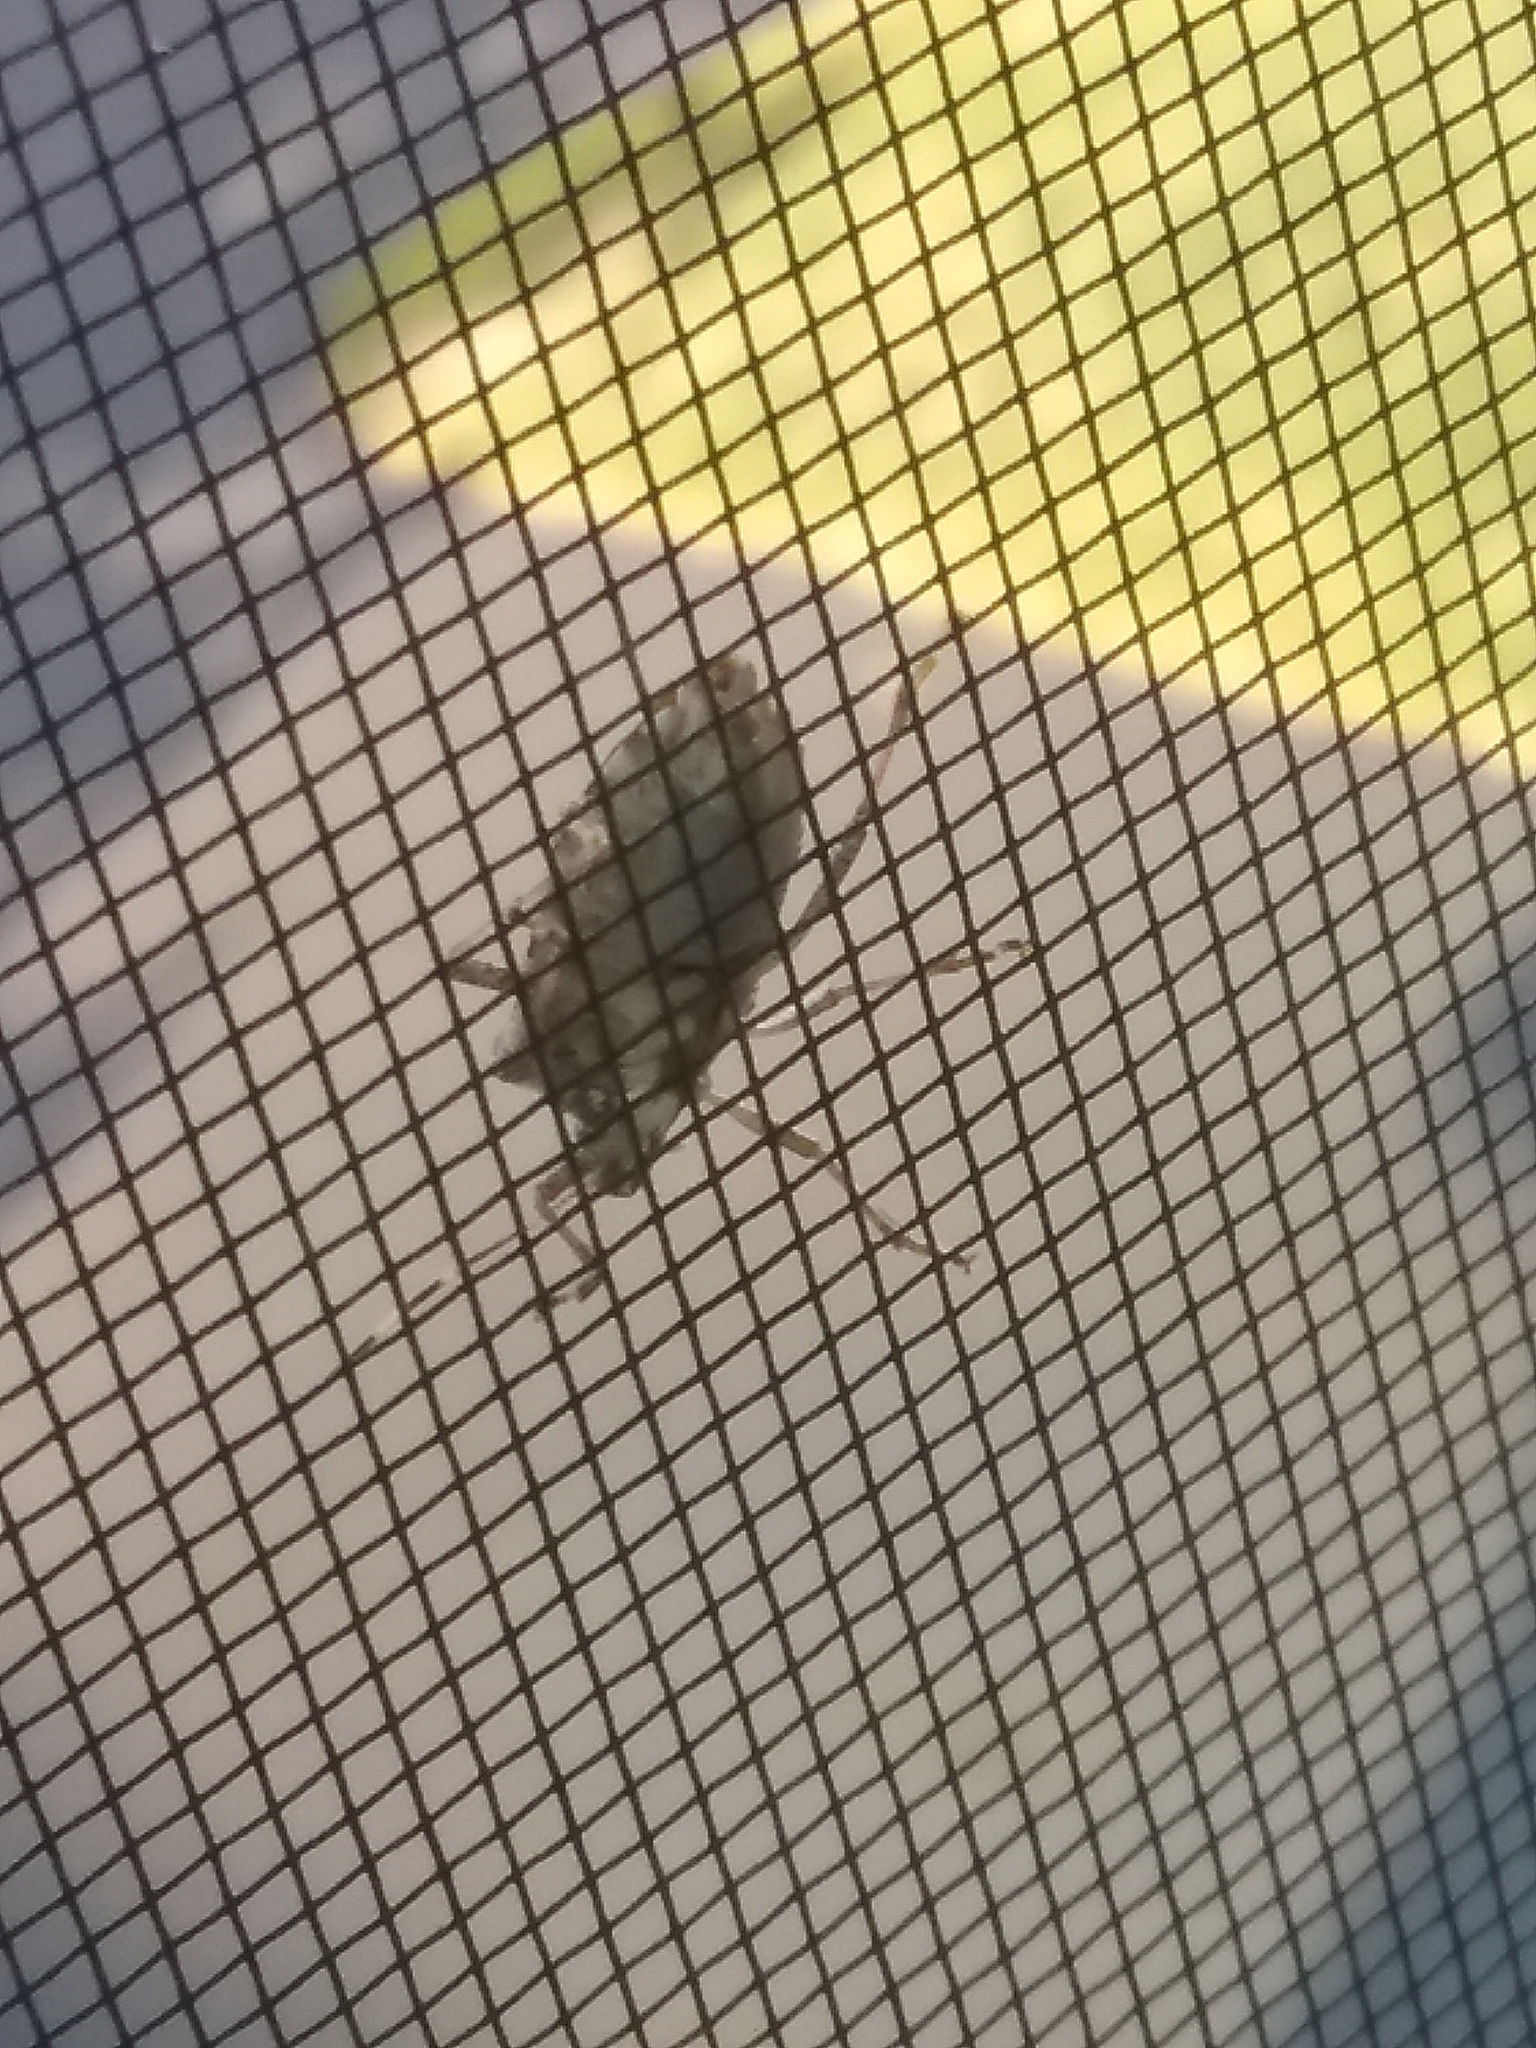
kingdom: Animalia
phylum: Arthropoda
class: Insecta
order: Hemiptera
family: Pentatomidae
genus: Halyomorpha
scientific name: Halyomorpha halys
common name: Brown marmorated stink bug
